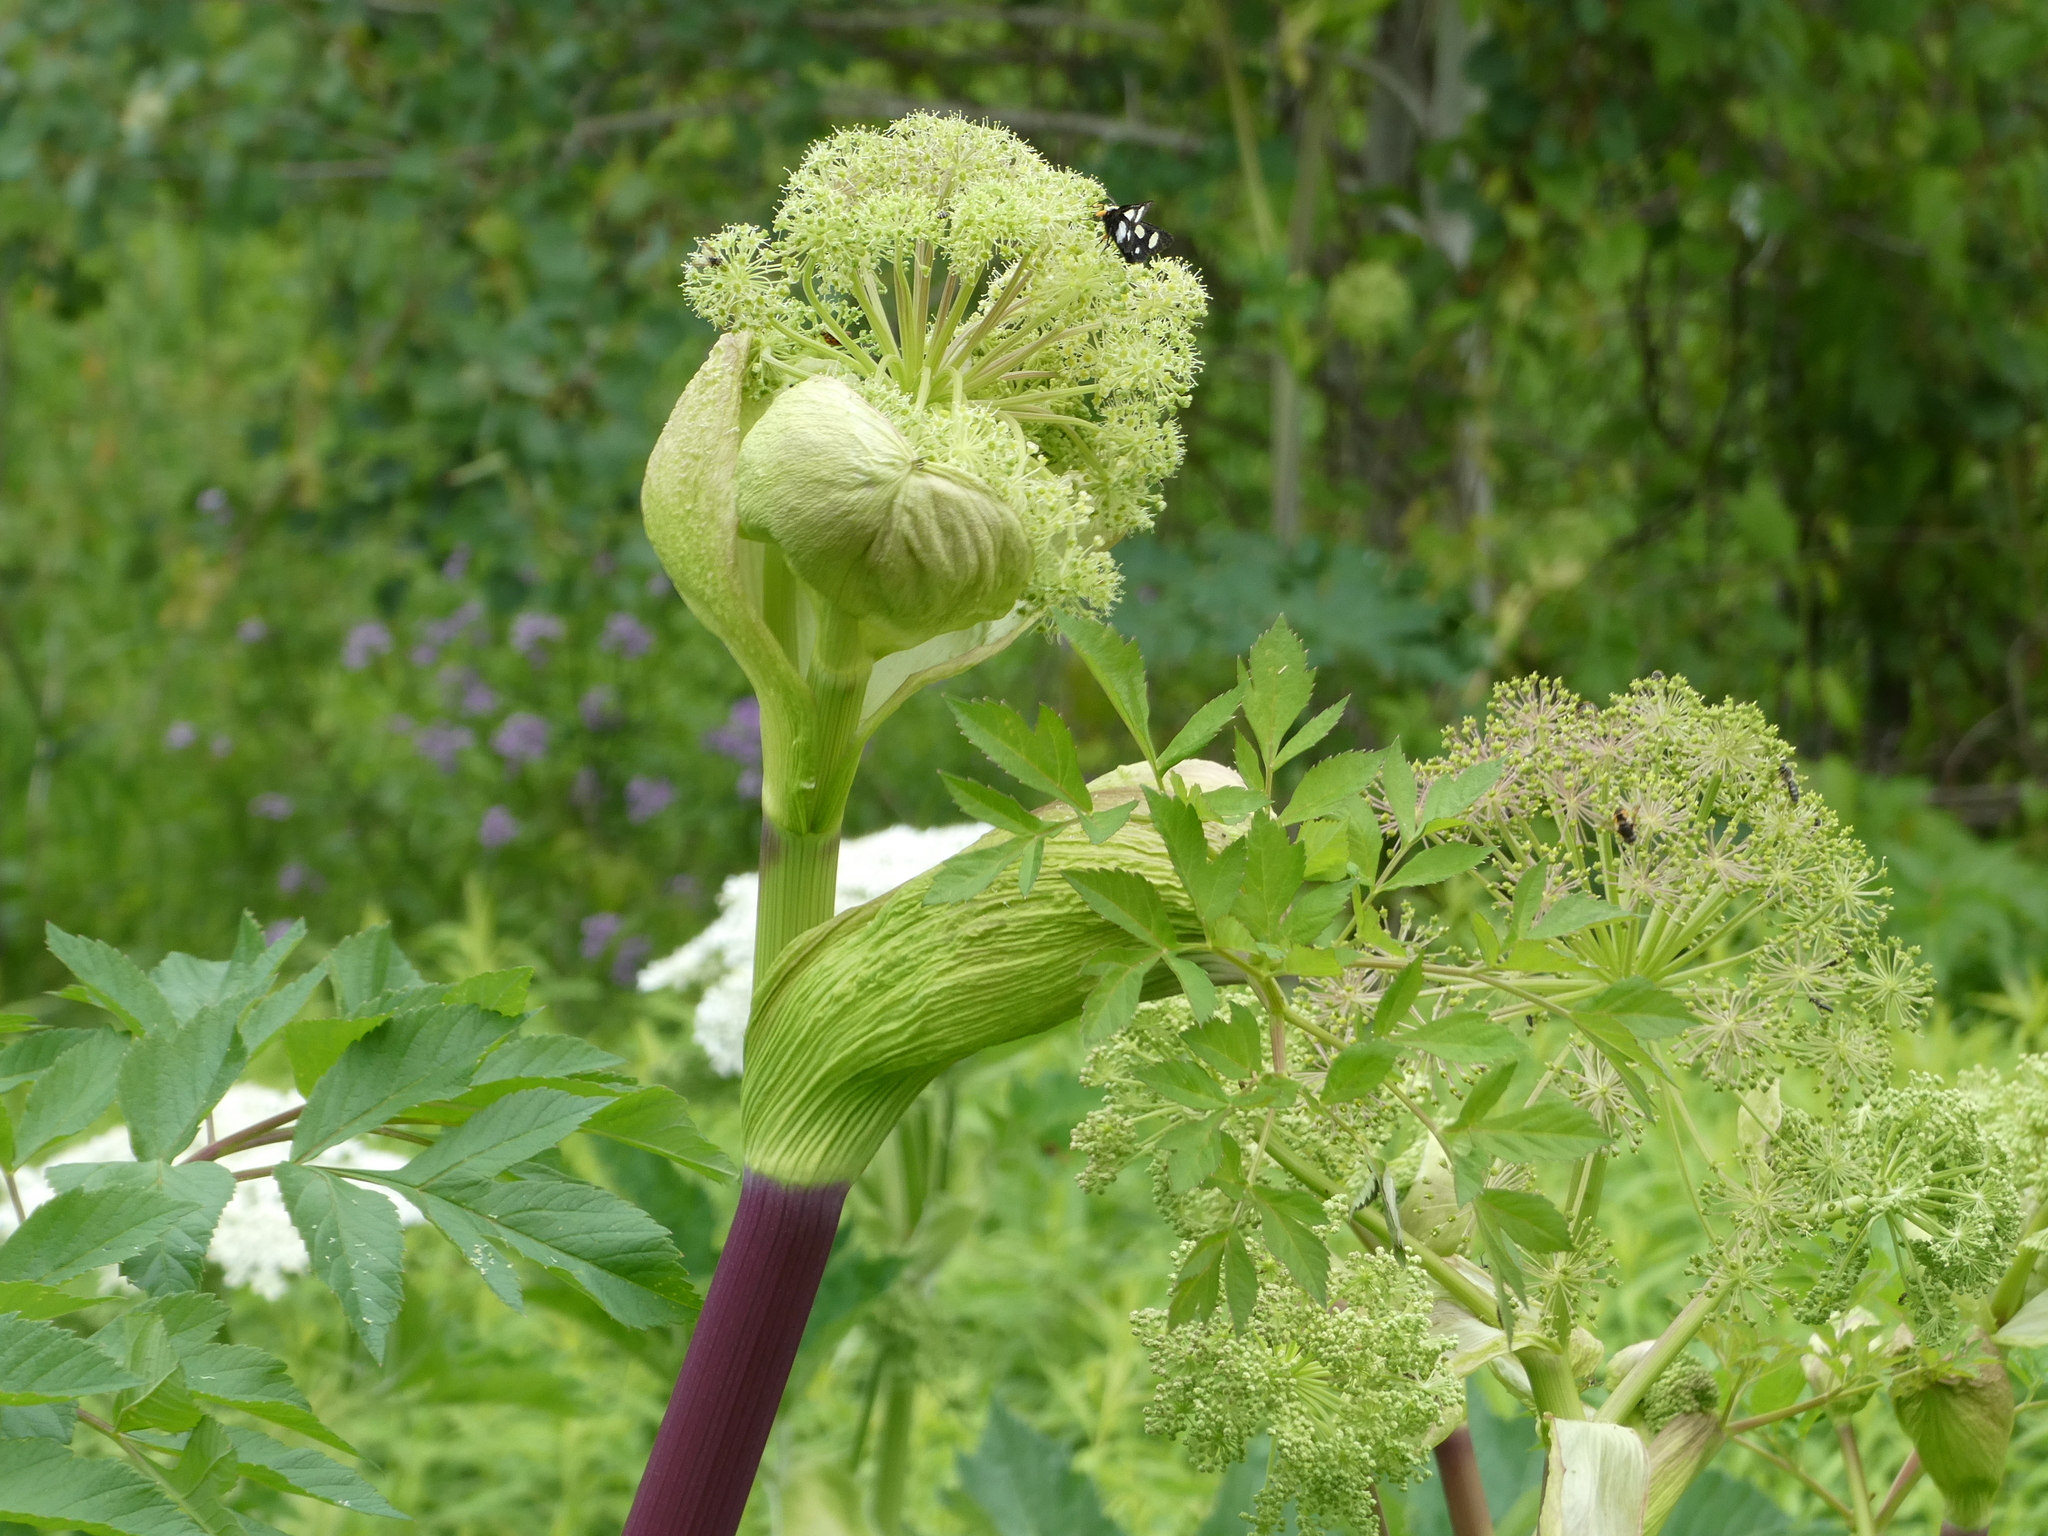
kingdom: Plantae
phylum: Tracheophyta
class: Magnoliopsida
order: Apiales
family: Apiaceae
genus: Angelica
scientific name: Angelica atropurpurea
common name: Great angelica
